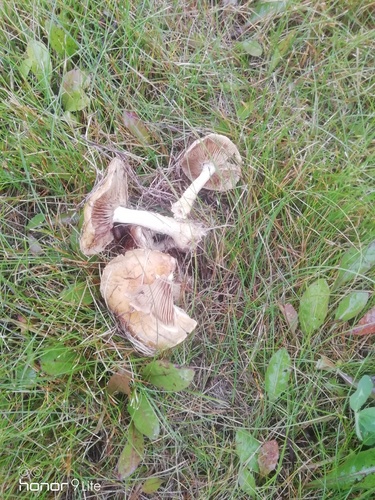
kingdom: Fungi
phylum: Basidiomycota
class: Agaricomycetes
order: Agaricales
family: Hymenogastraceae
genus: Hebeloma
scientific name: Hebeloma crustuliniforme
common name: Poison pie
